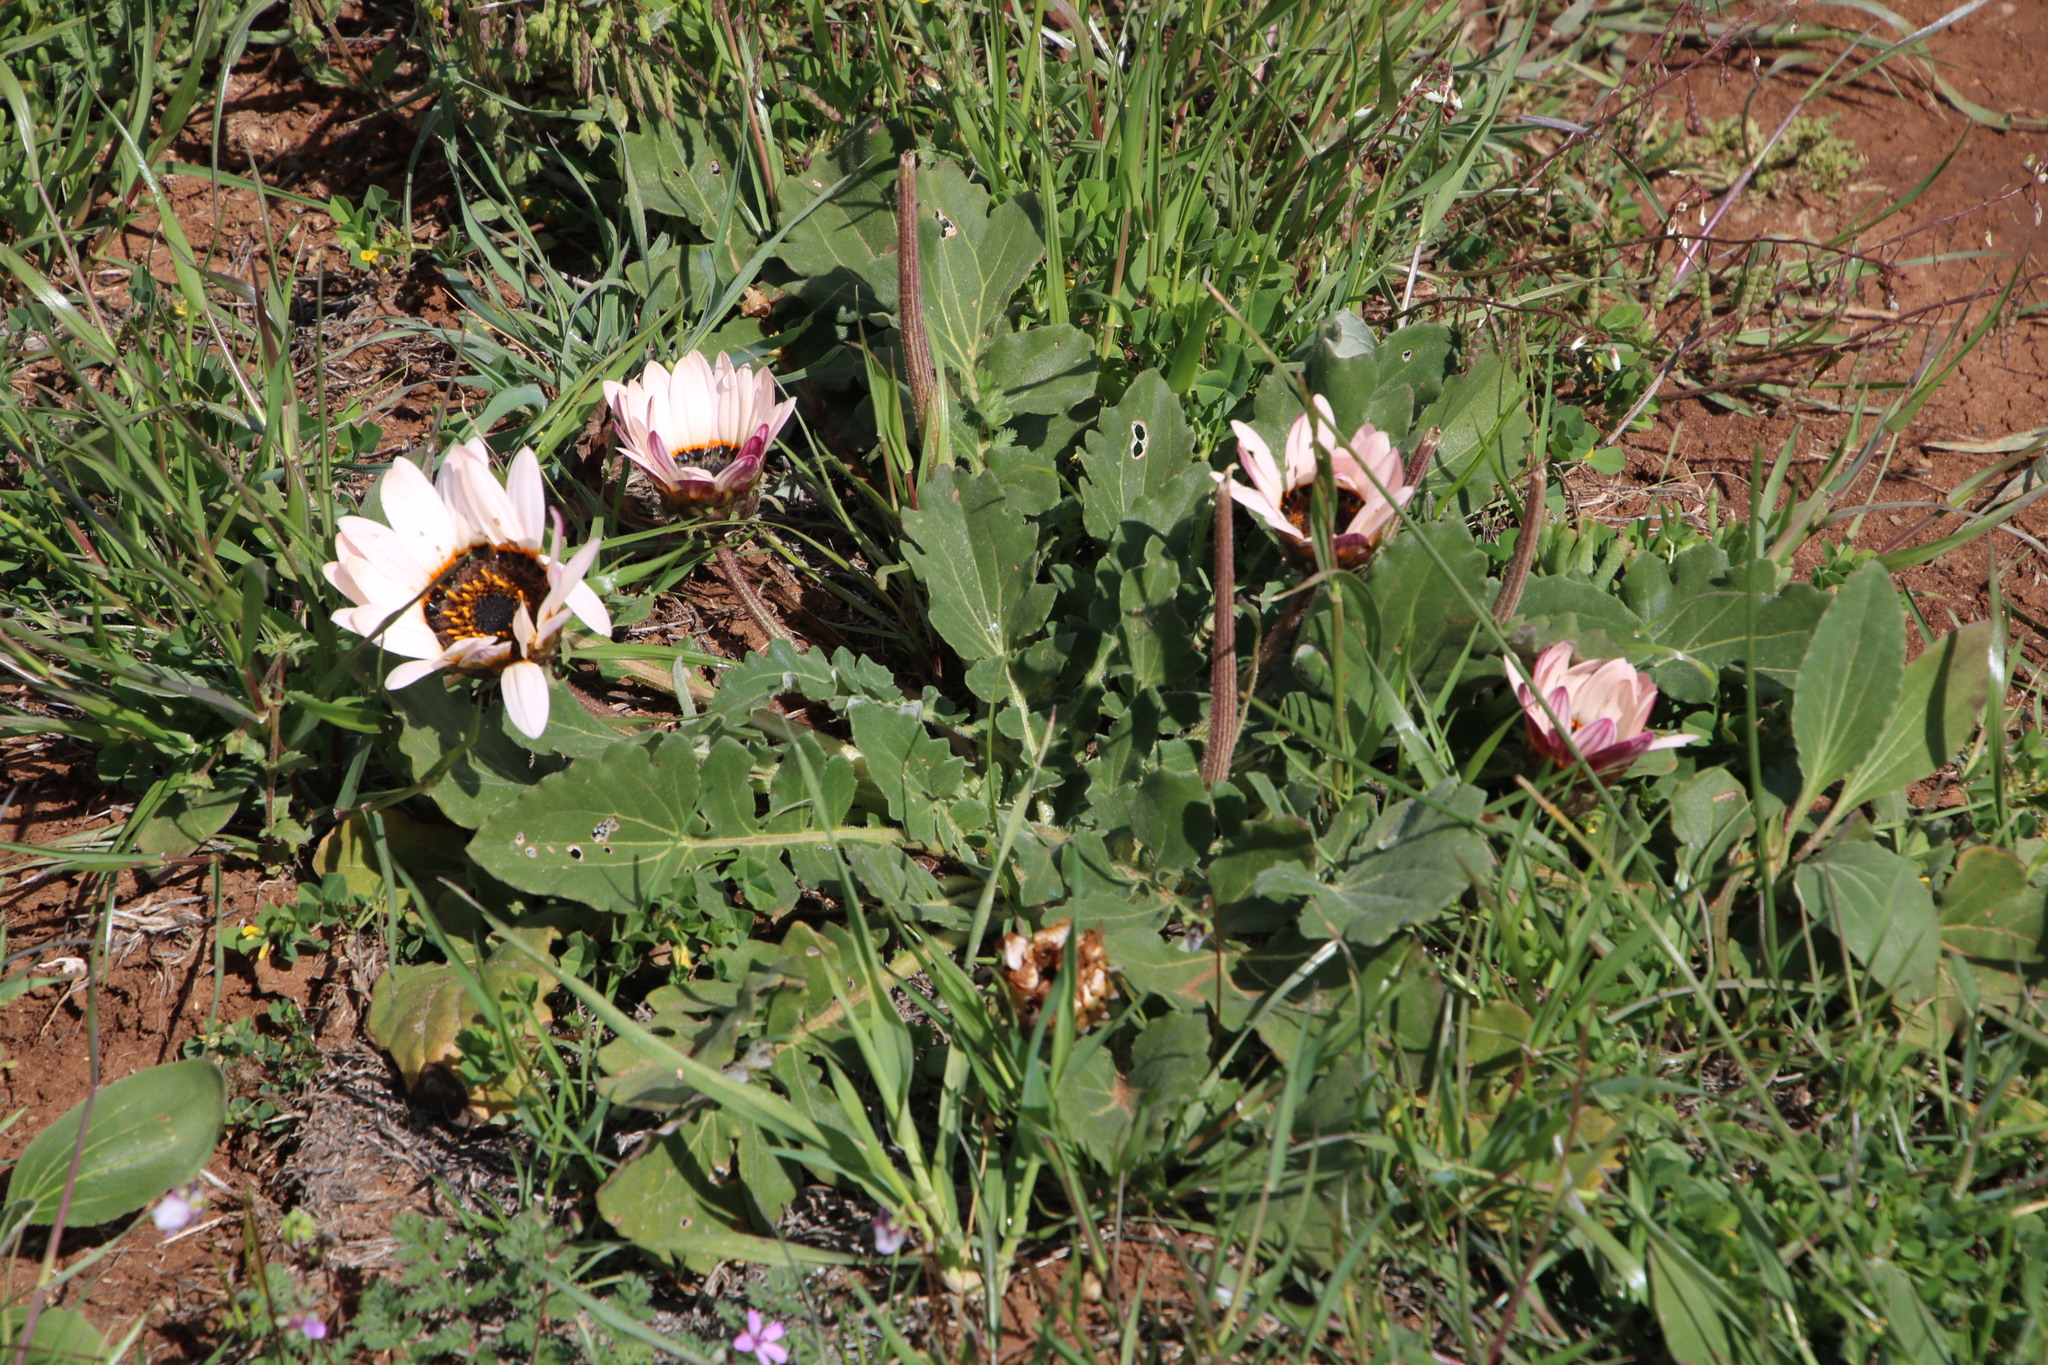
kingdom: Plantae
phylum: Tracheophyta
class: Magnoliopsida
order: Asterales
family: Asteraceae
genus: Arctotis
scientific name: Arctotis acaulis
